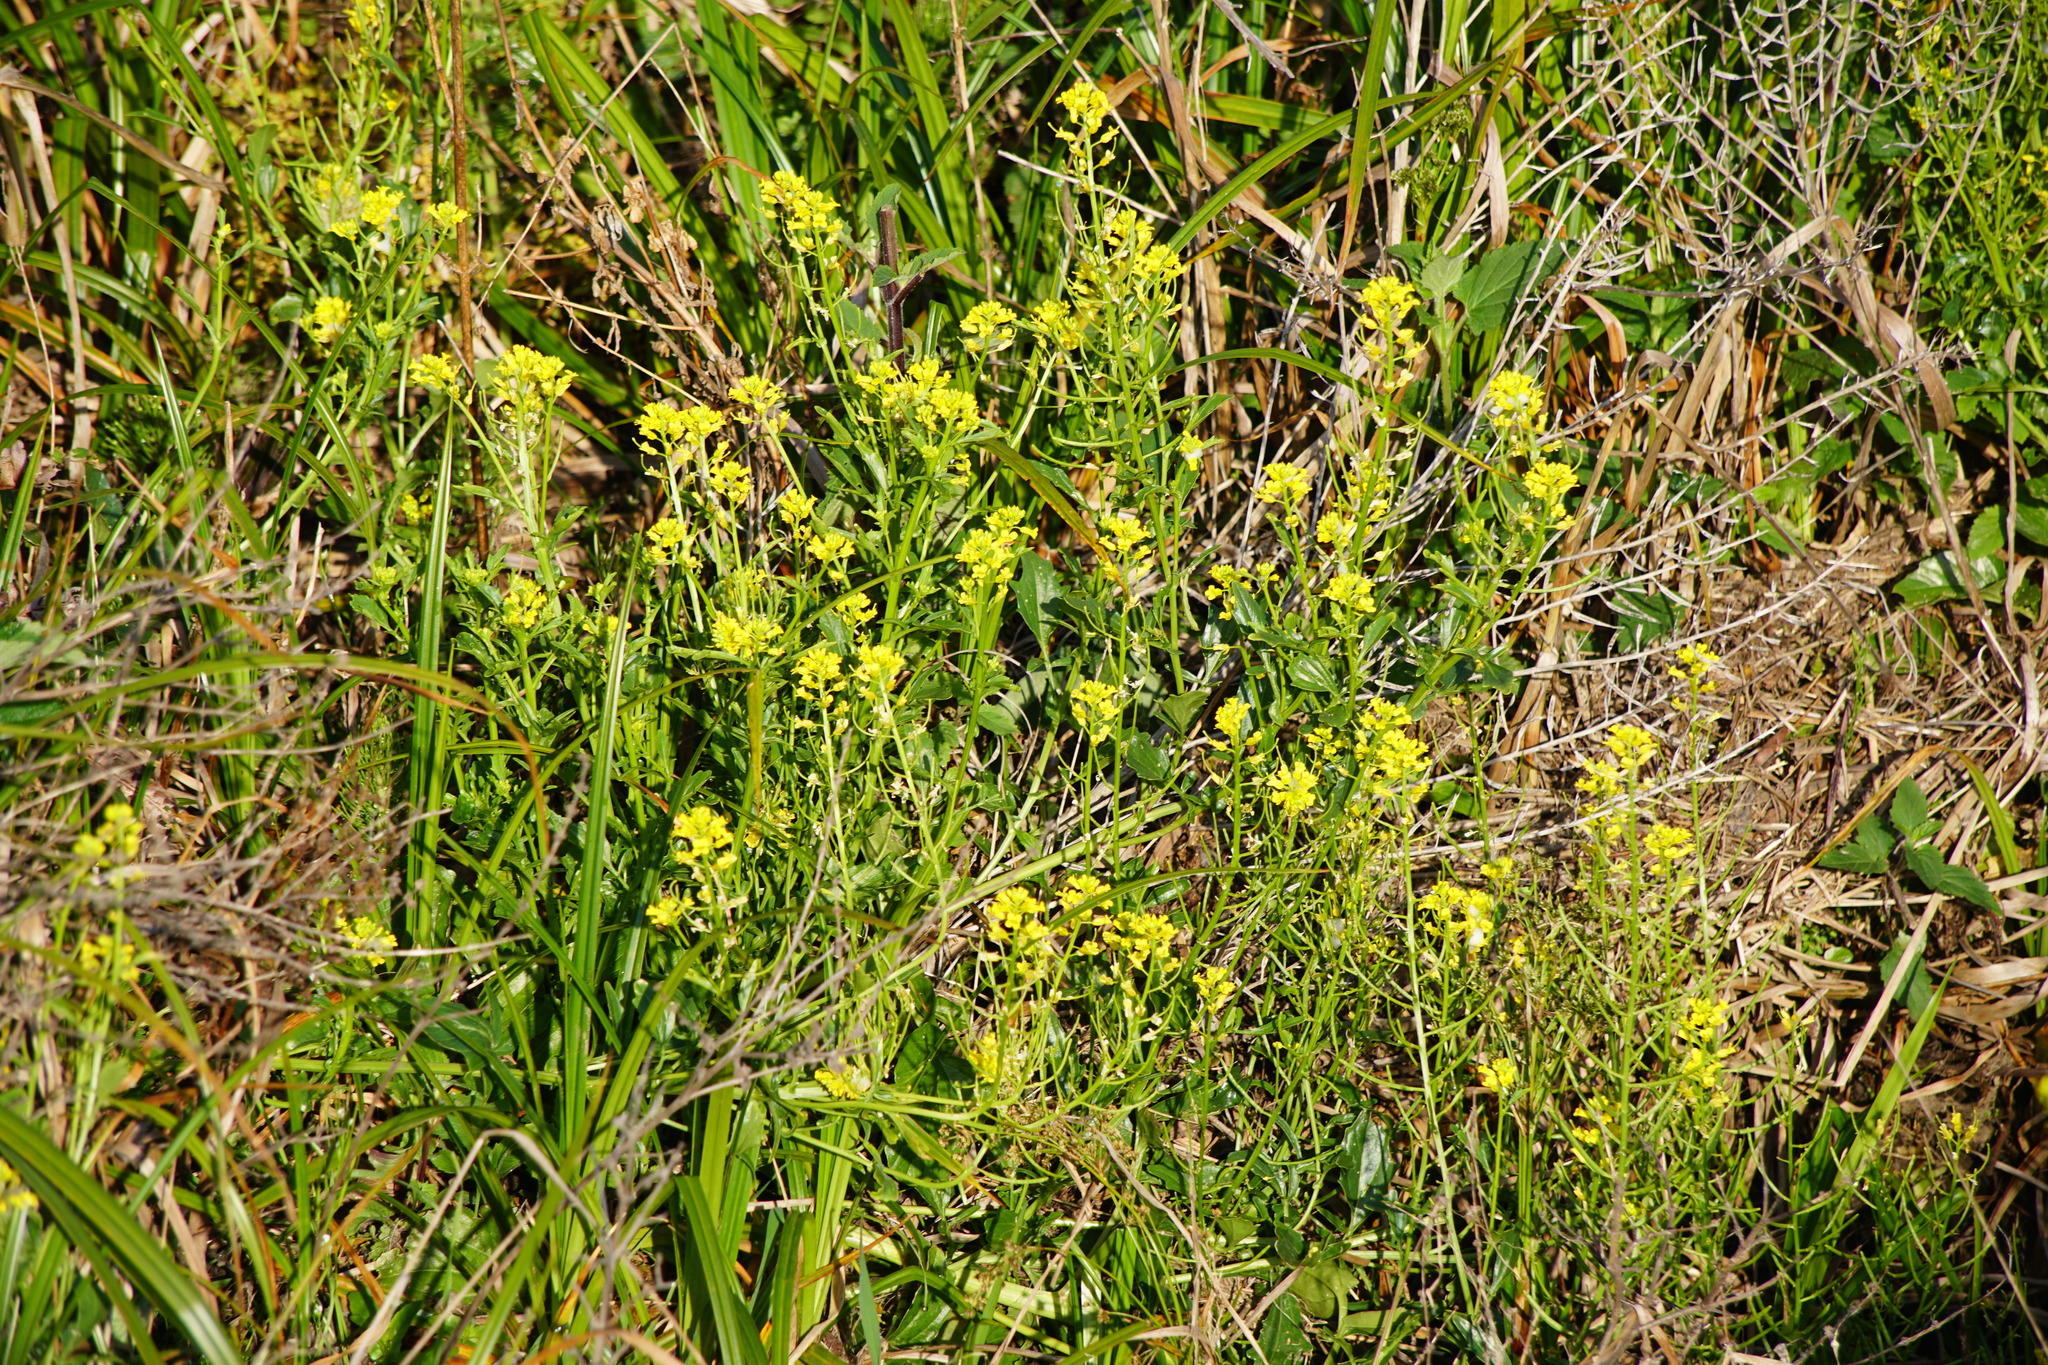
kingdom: Plantae
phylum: Tracheophyta
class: Magnoliopsida
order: Brassicales
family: Brassicaceae
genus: Barbarea
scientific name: Barbarea orthoceras
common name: American wintercress
